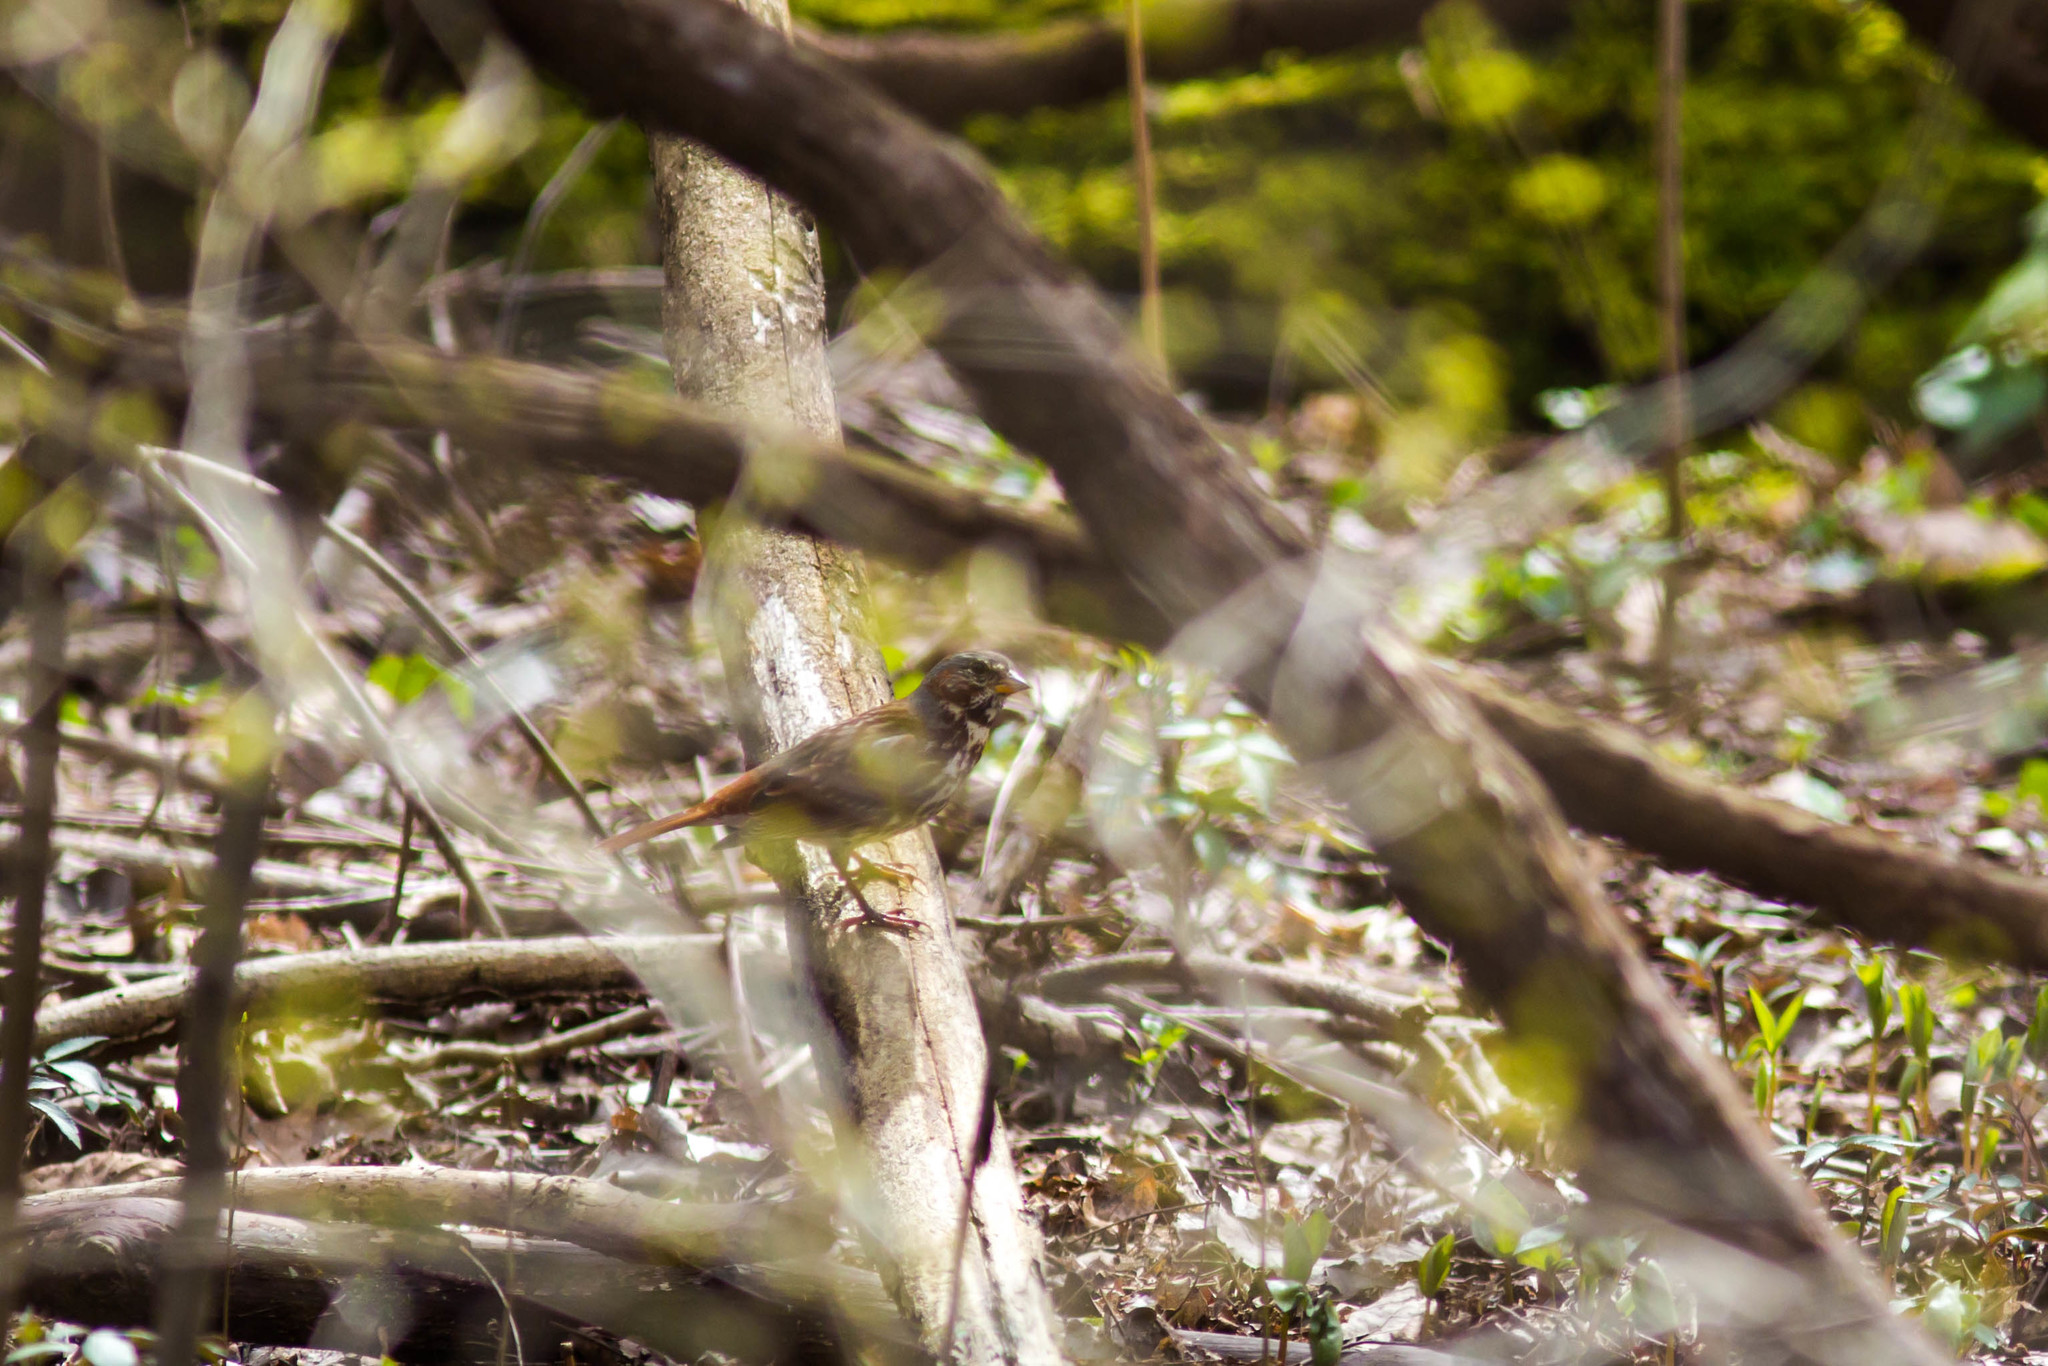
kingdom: Animalia
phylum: Chordata
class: Aves
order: Passeriformes
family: Passerellidae
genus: Passerella
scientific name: Passerella iliaca
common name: Fox sparrow
